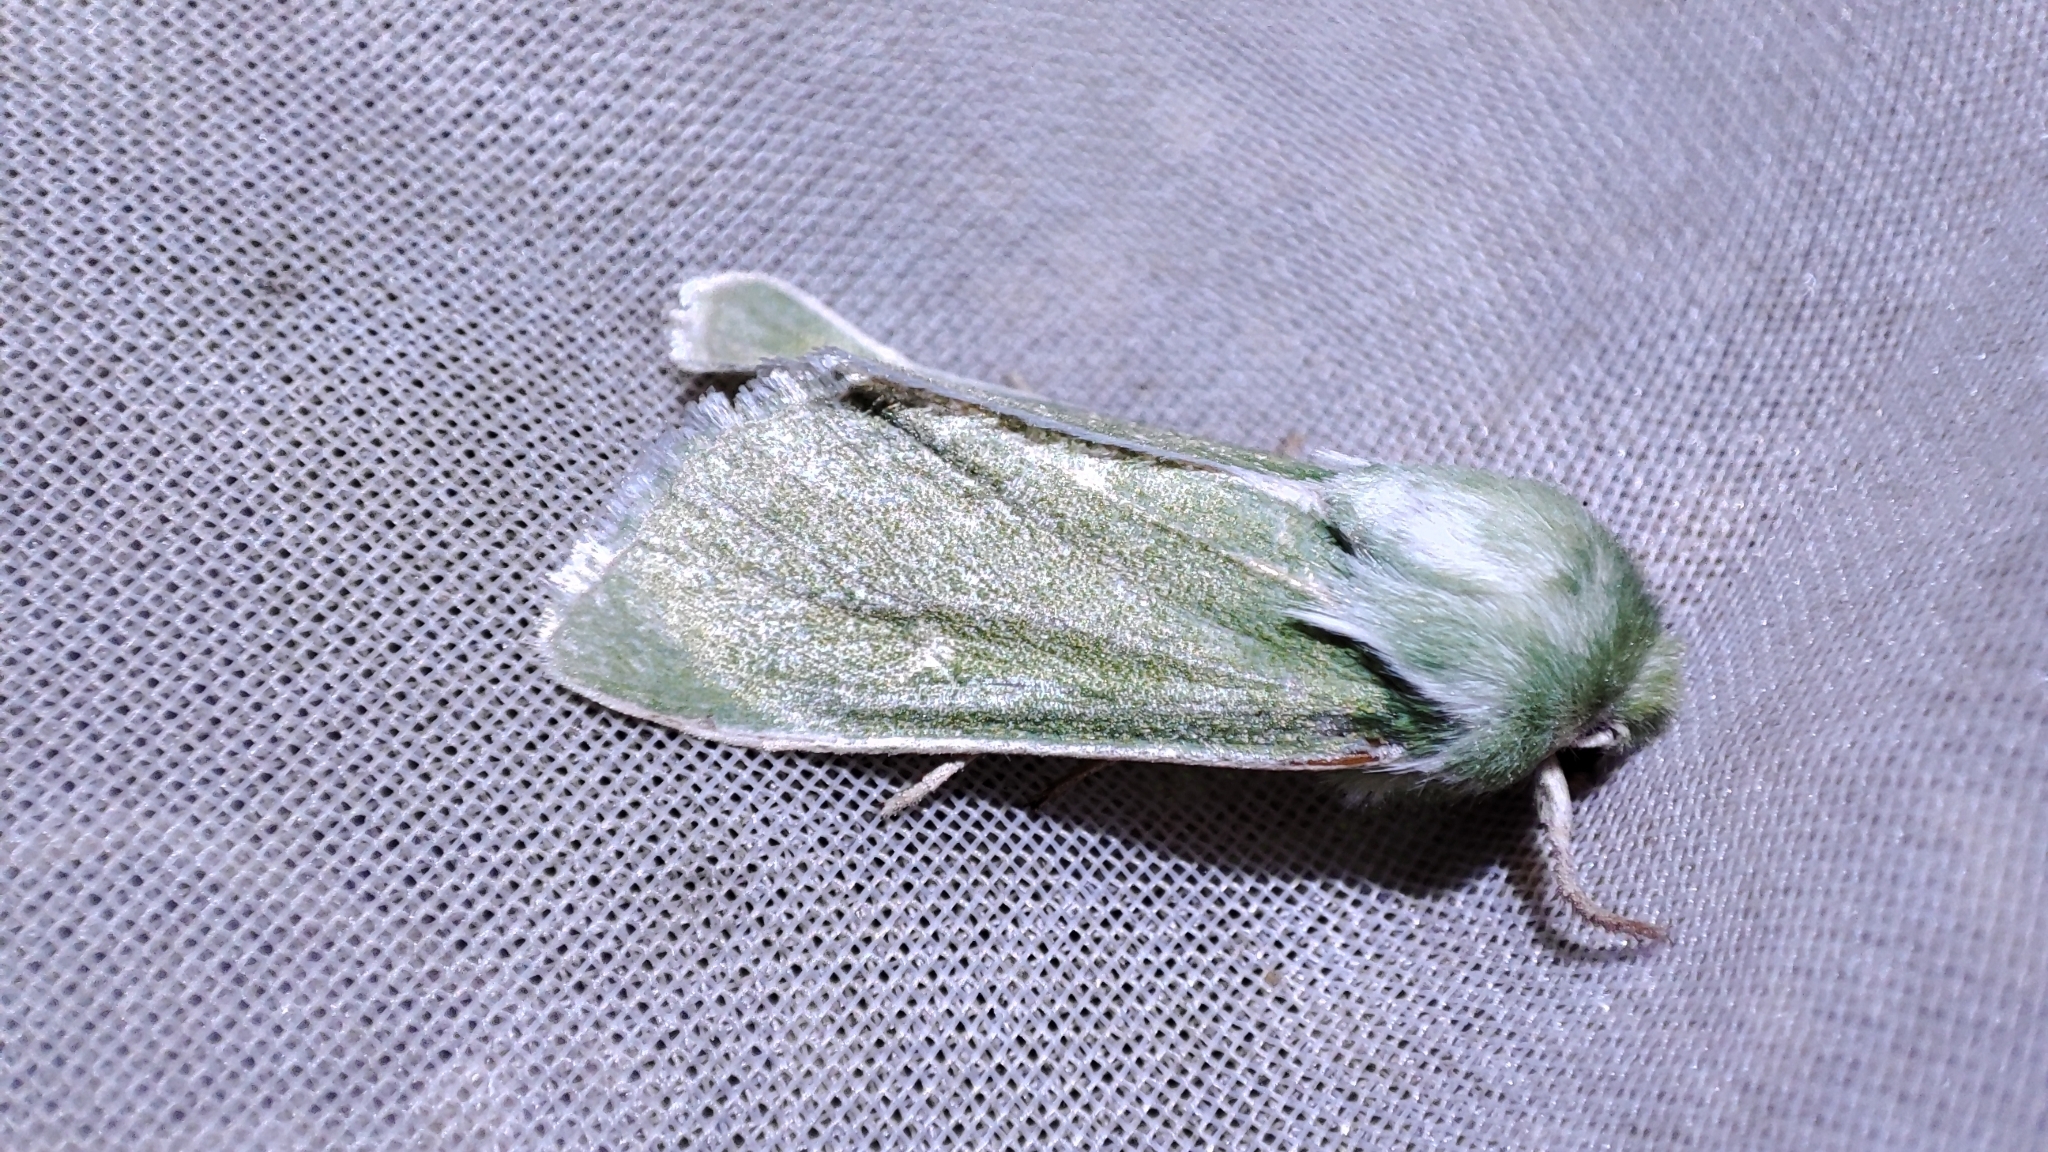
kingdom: Animalia
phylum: Arthropoda
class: Insecta
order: Lepidoptera
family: Noctuidae
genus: Calamia
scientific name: Calamia tridens
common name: Burren green
